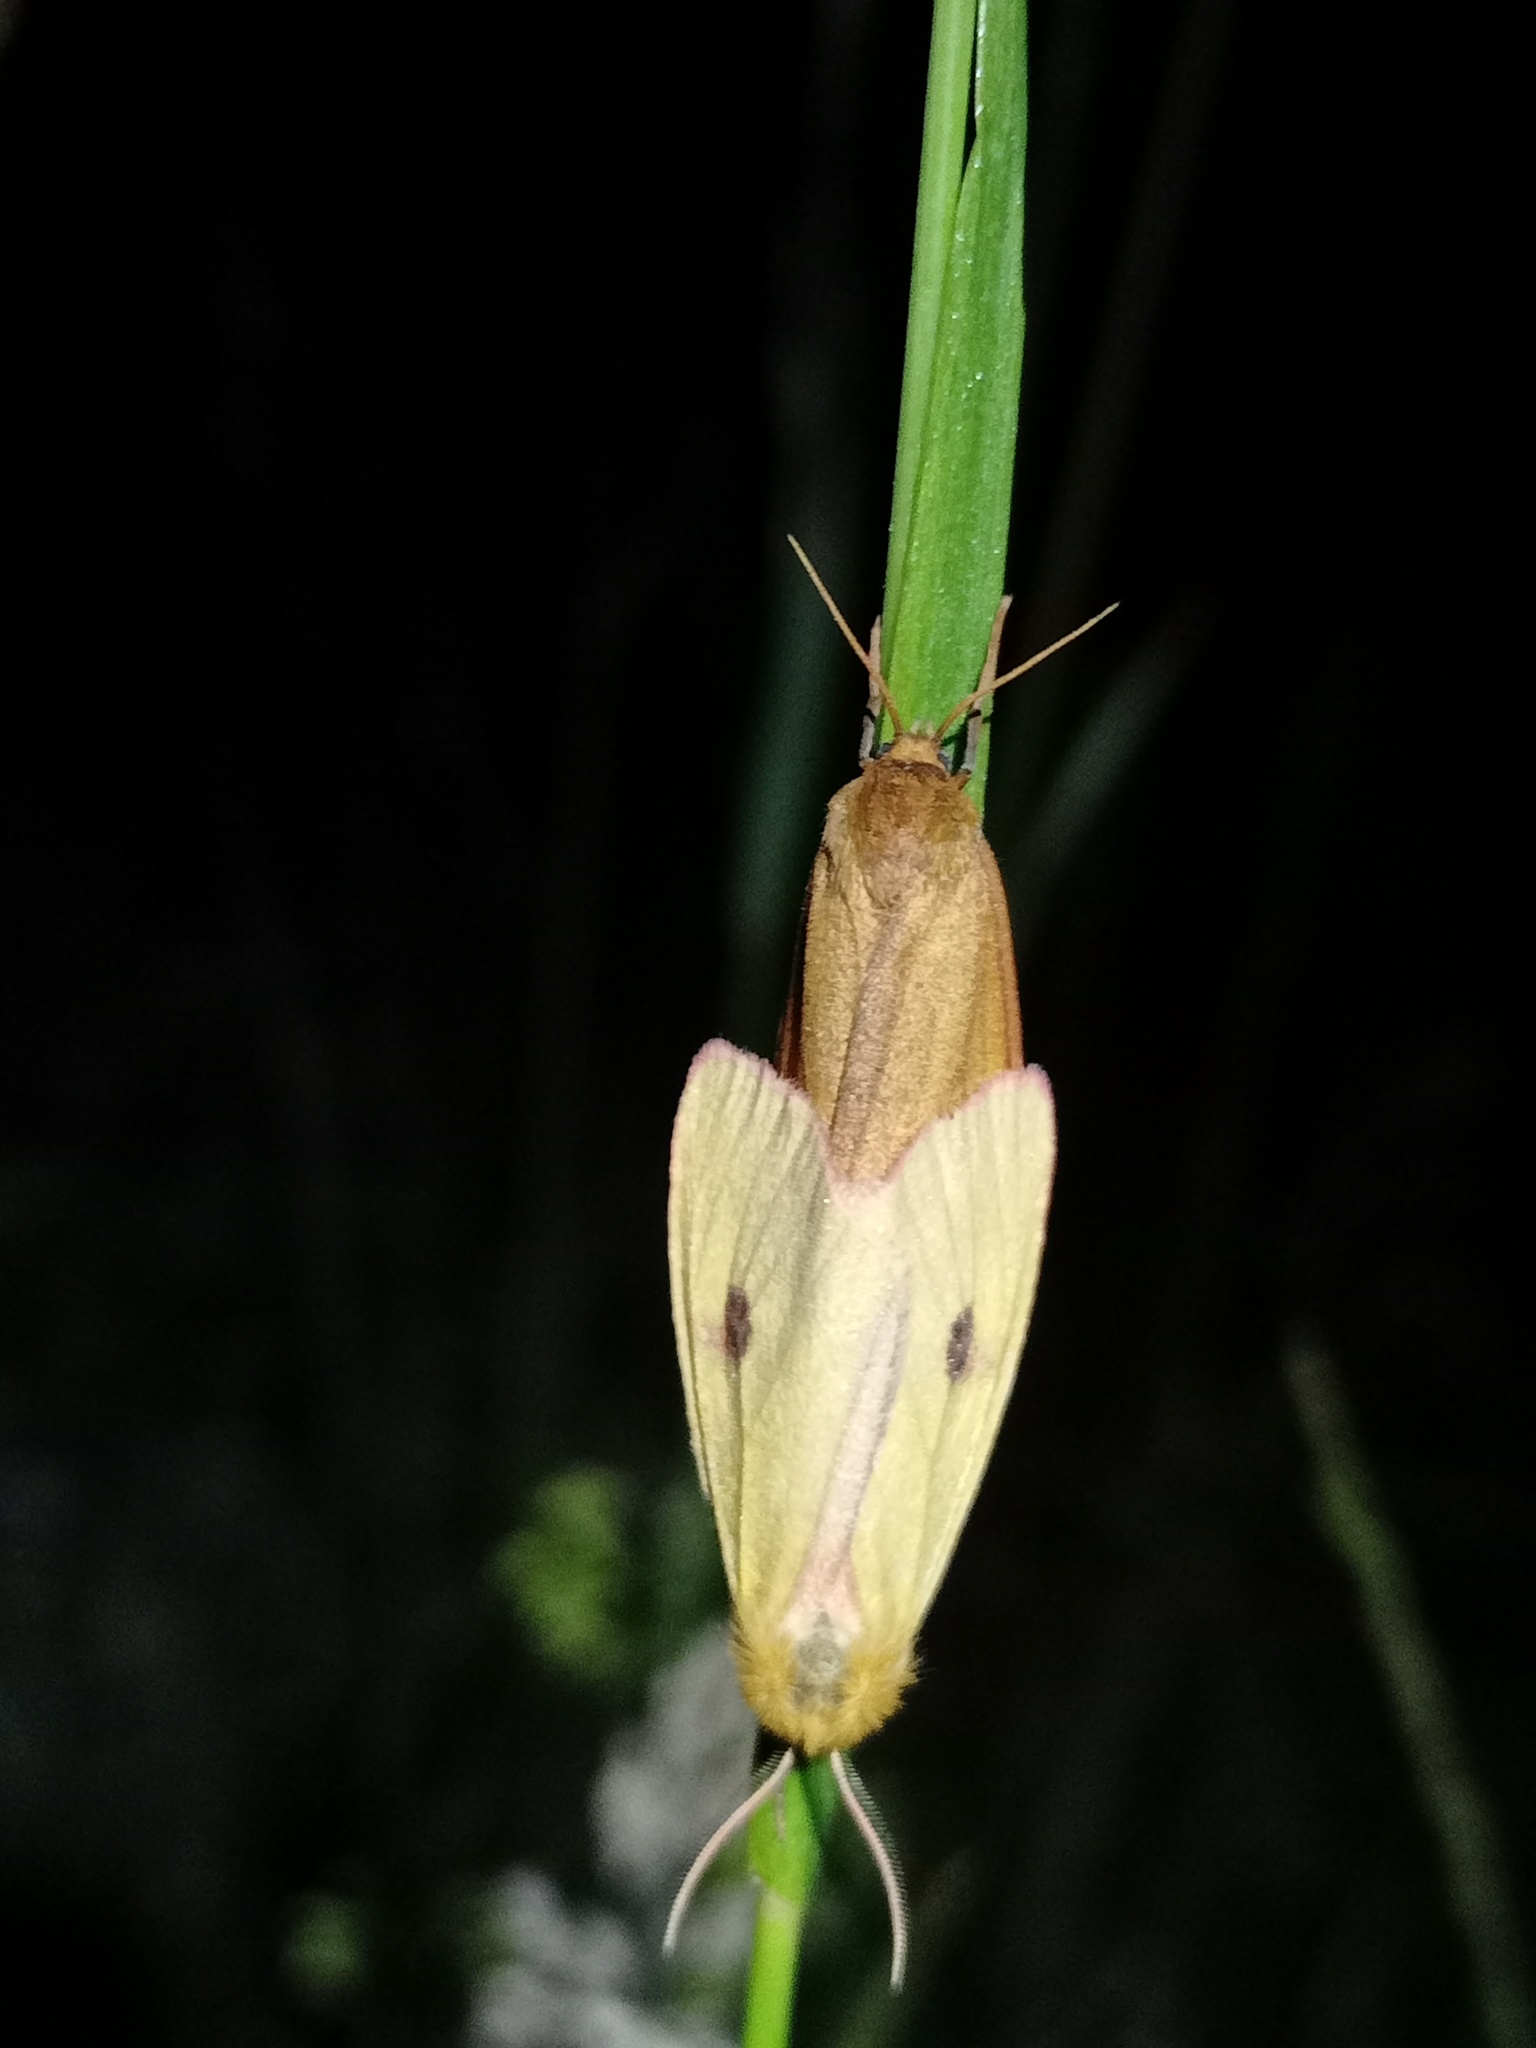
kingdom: Animalia
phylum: Arthropoda
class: Insecta
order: Lepidoptera
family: Erebidae
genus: Diacrisia
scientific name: Diacrisia sannio
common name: Clouded buff
